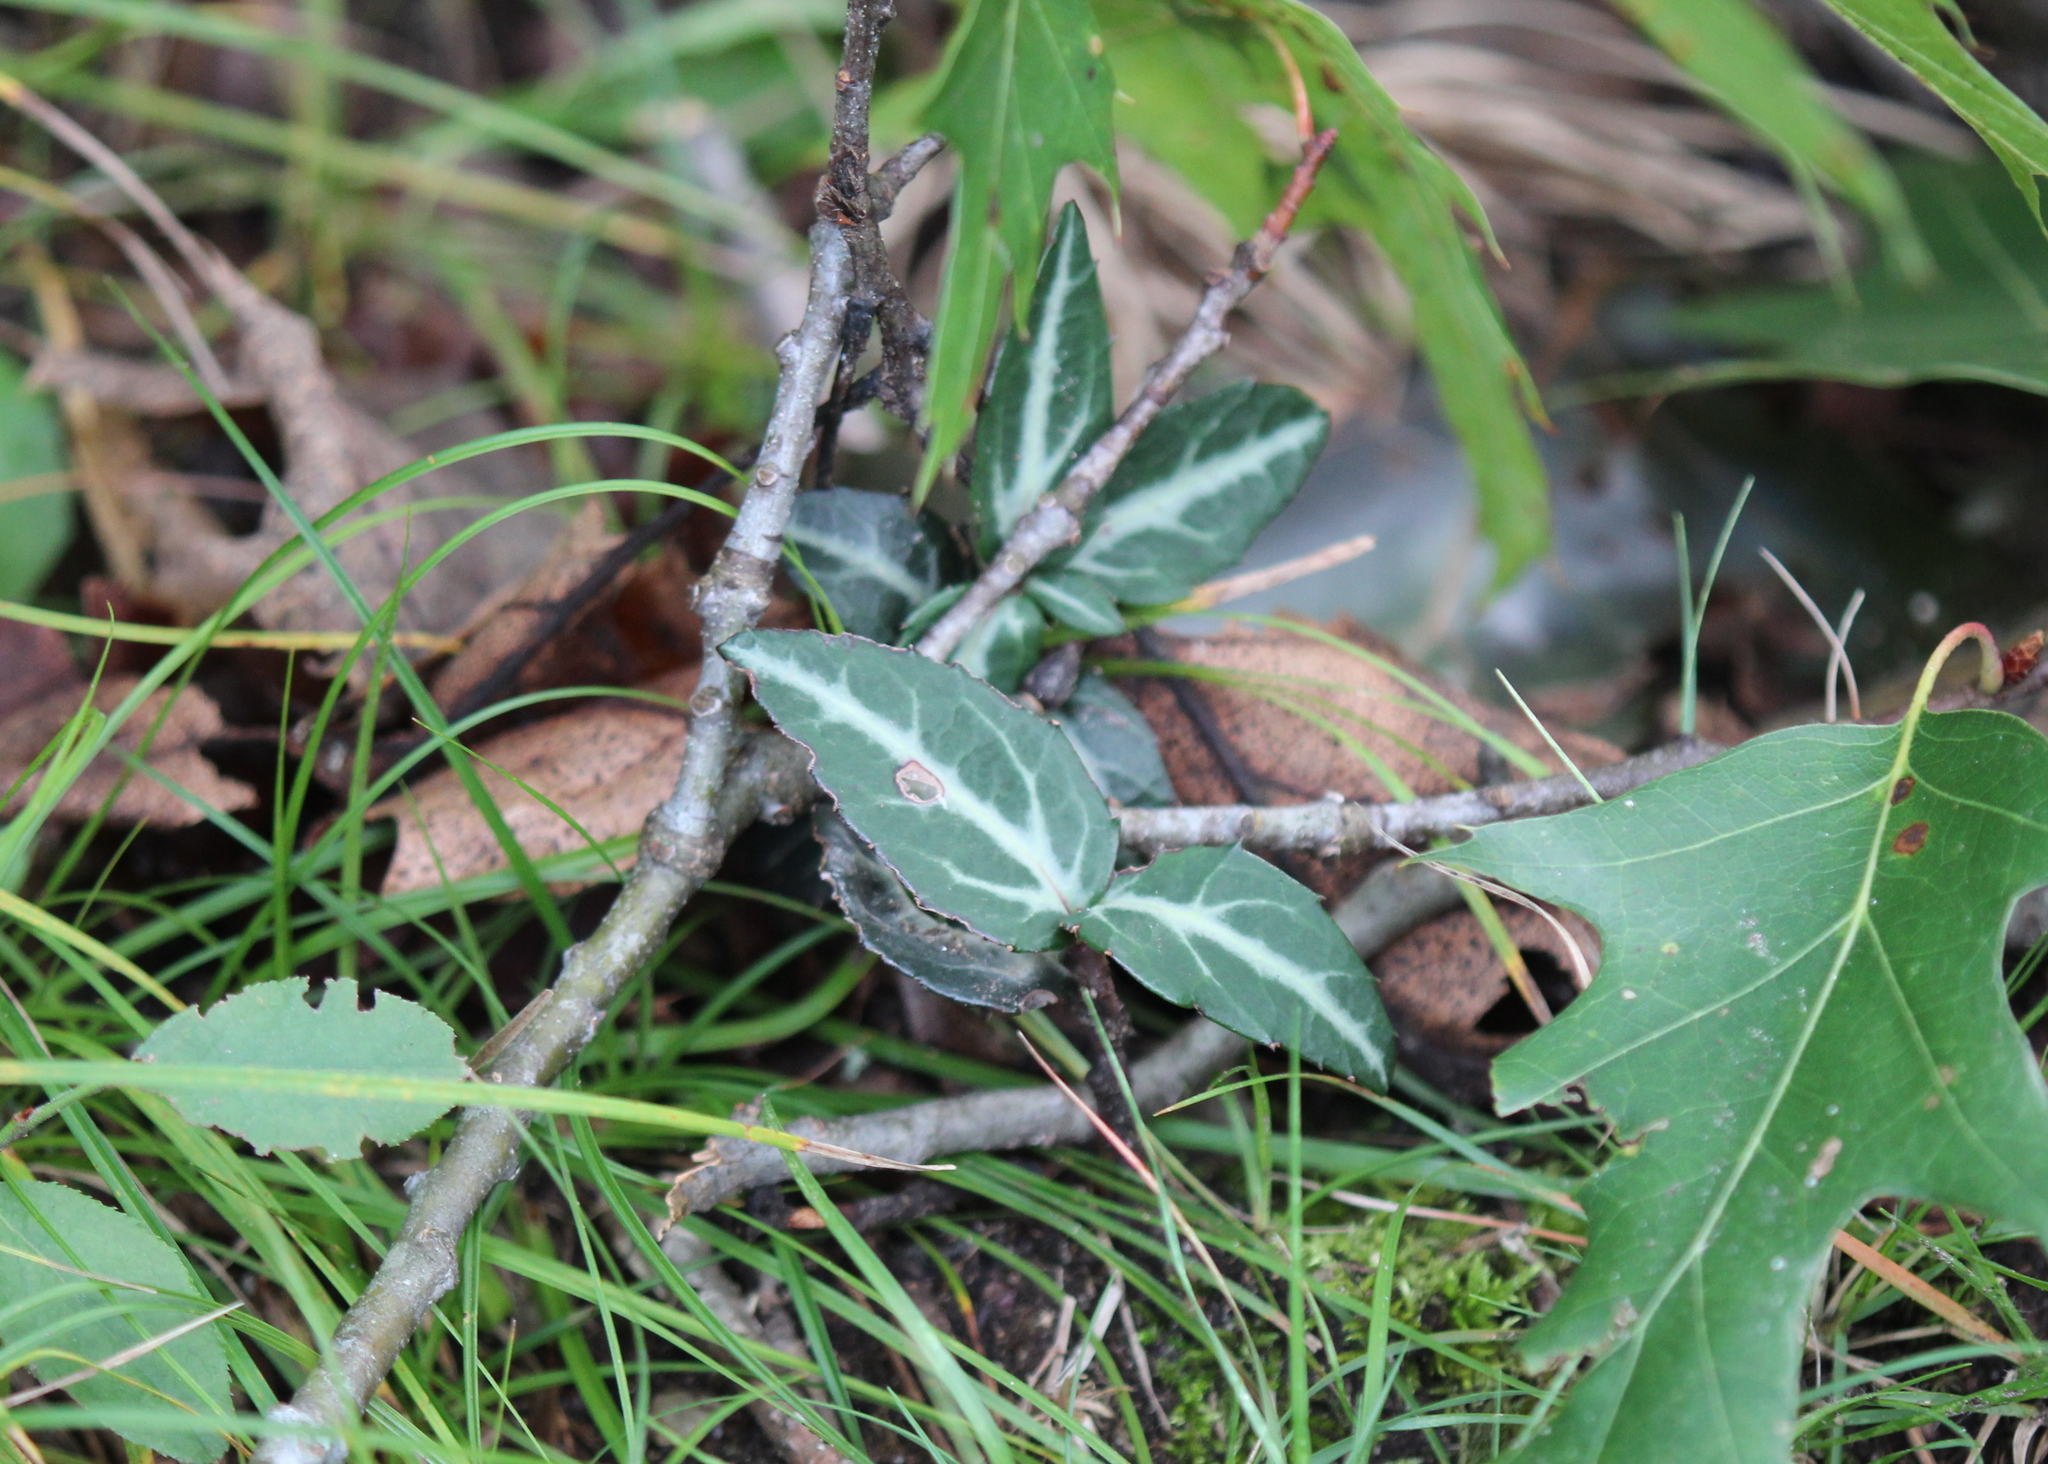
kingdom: Plantae
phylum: Tracheophyta
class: Magnoliopsida
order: Ericales
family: Ericaceae
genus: Chimaphila
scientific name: Chimaphila maculata
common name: Spotted pipsissewa
